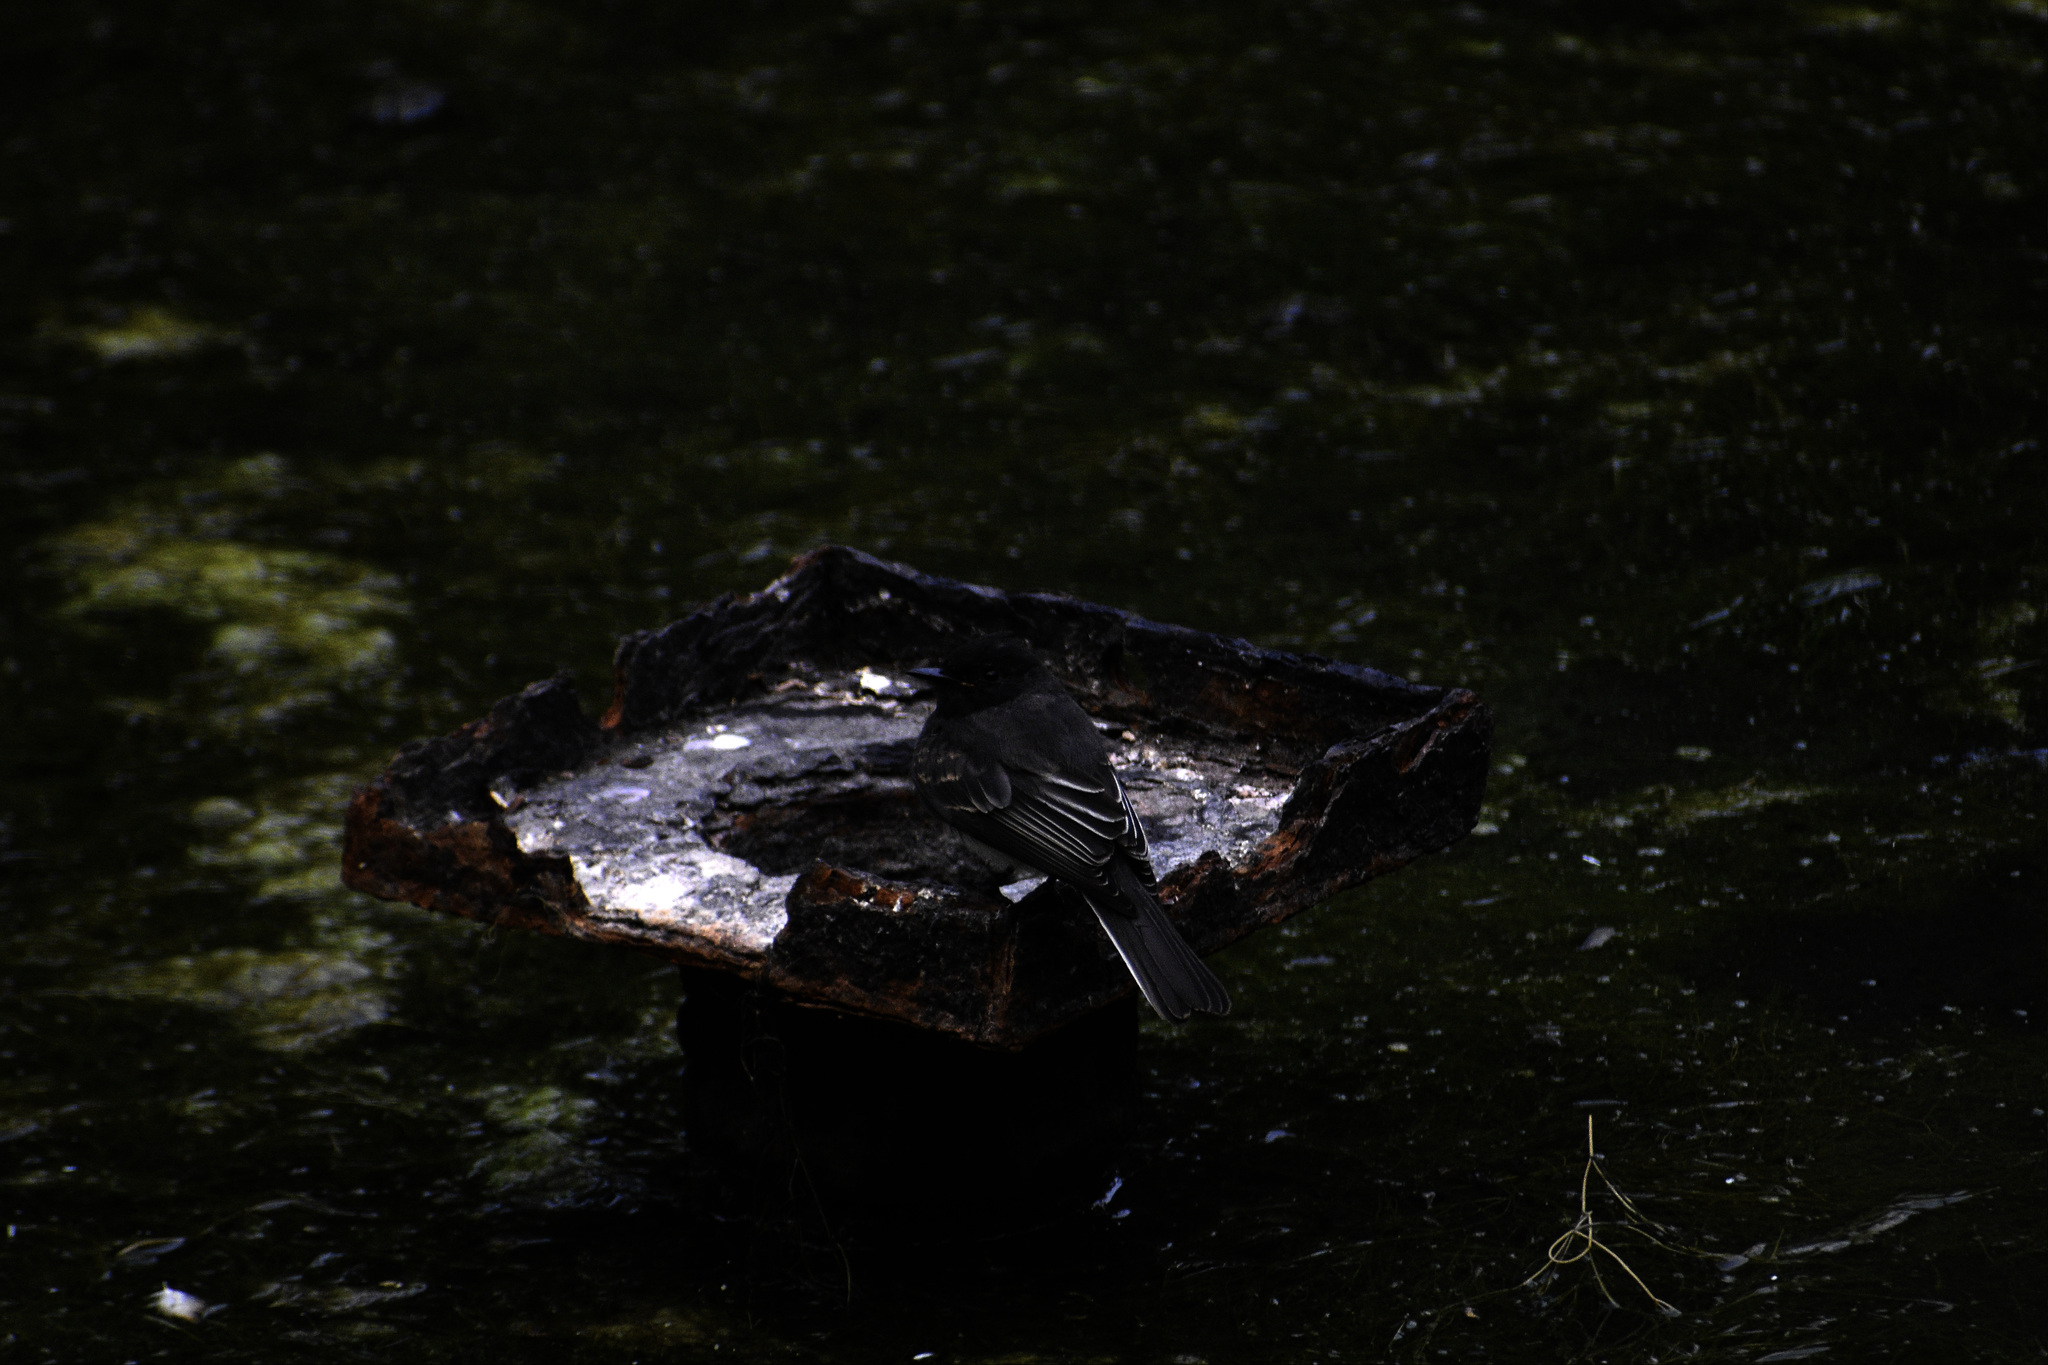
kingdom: Animalia
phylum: Chordata
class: Aves
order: Passeriformes
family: Tyrannidae
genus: Sayornis
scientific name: Sayornis nigricans
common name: Black phoebe
